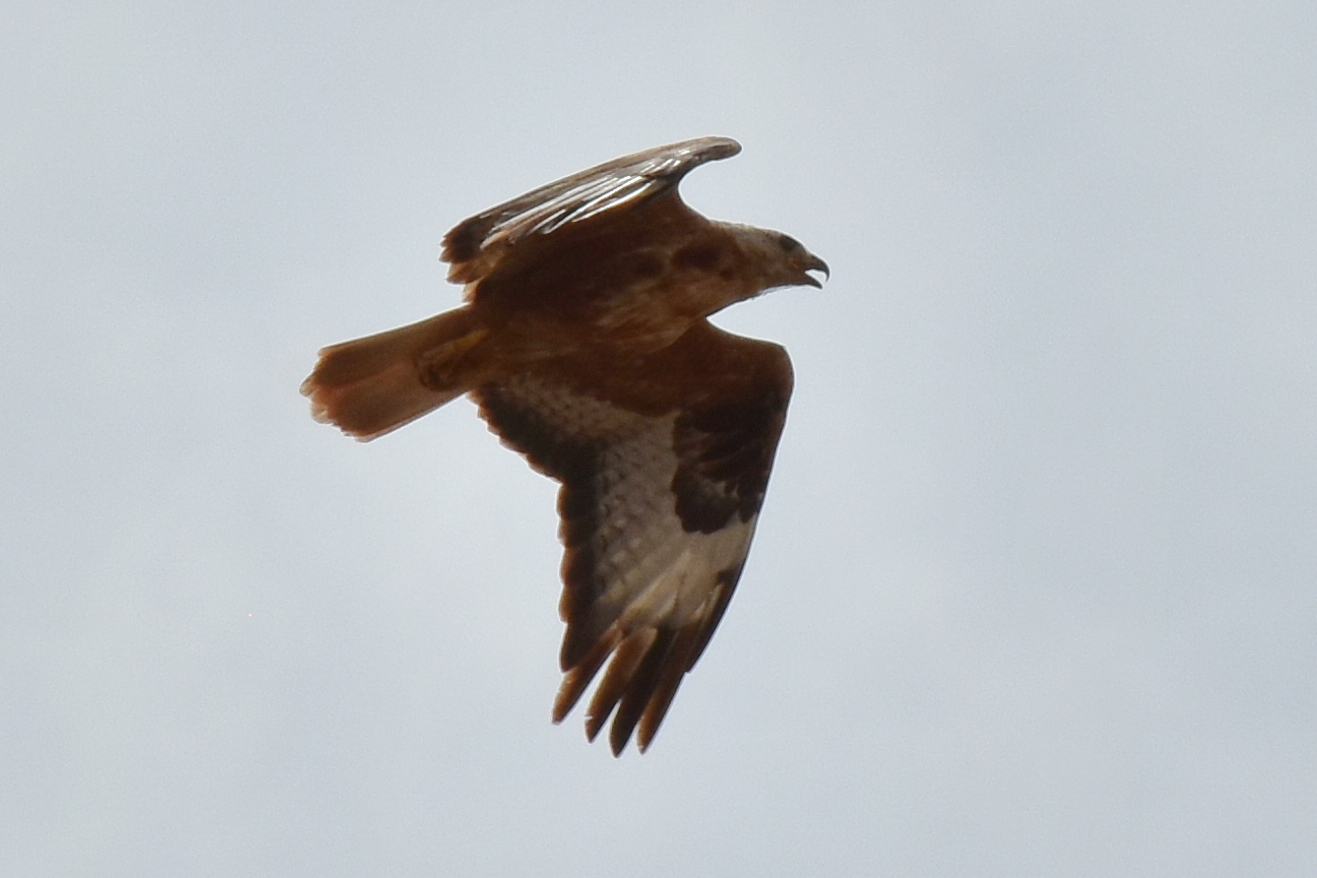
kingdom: Animalia
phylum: Chordata
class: Aves
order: Accipitriformes
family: Accipitridae
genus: Buteo
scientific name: Buteo rufinus
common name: Long-legged buzzard
